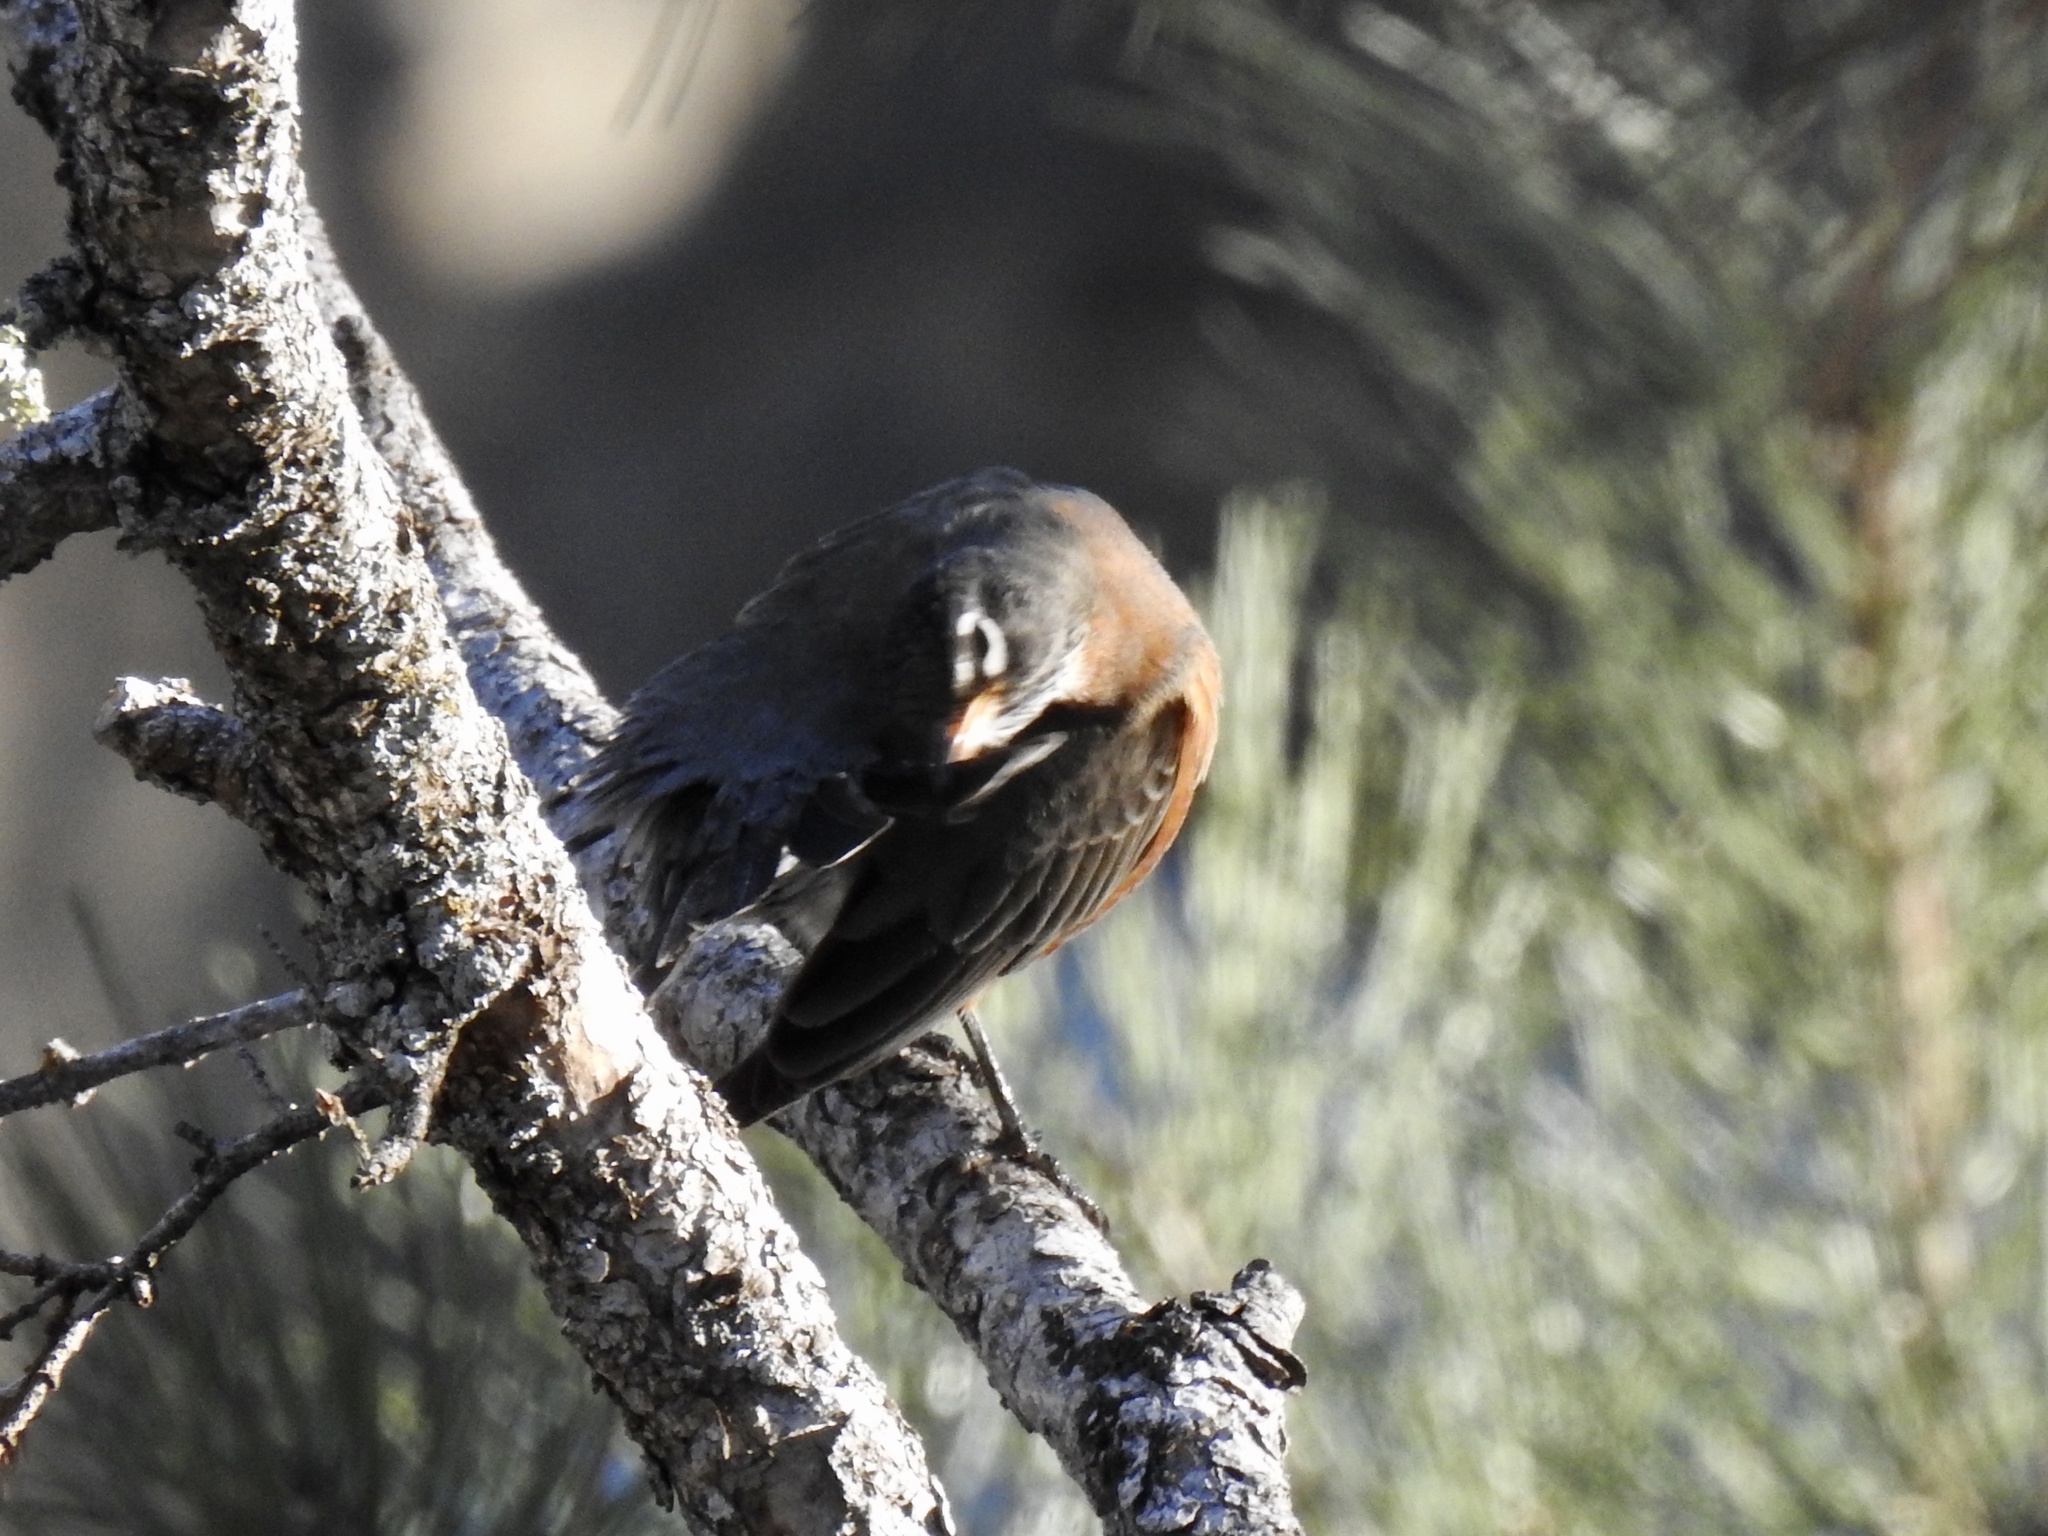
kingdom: Animalia
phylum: Chordata
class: Aves
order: Passeriformes
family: Turdidae
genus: Turdus
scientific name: Turdus migratorius
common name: American robin
